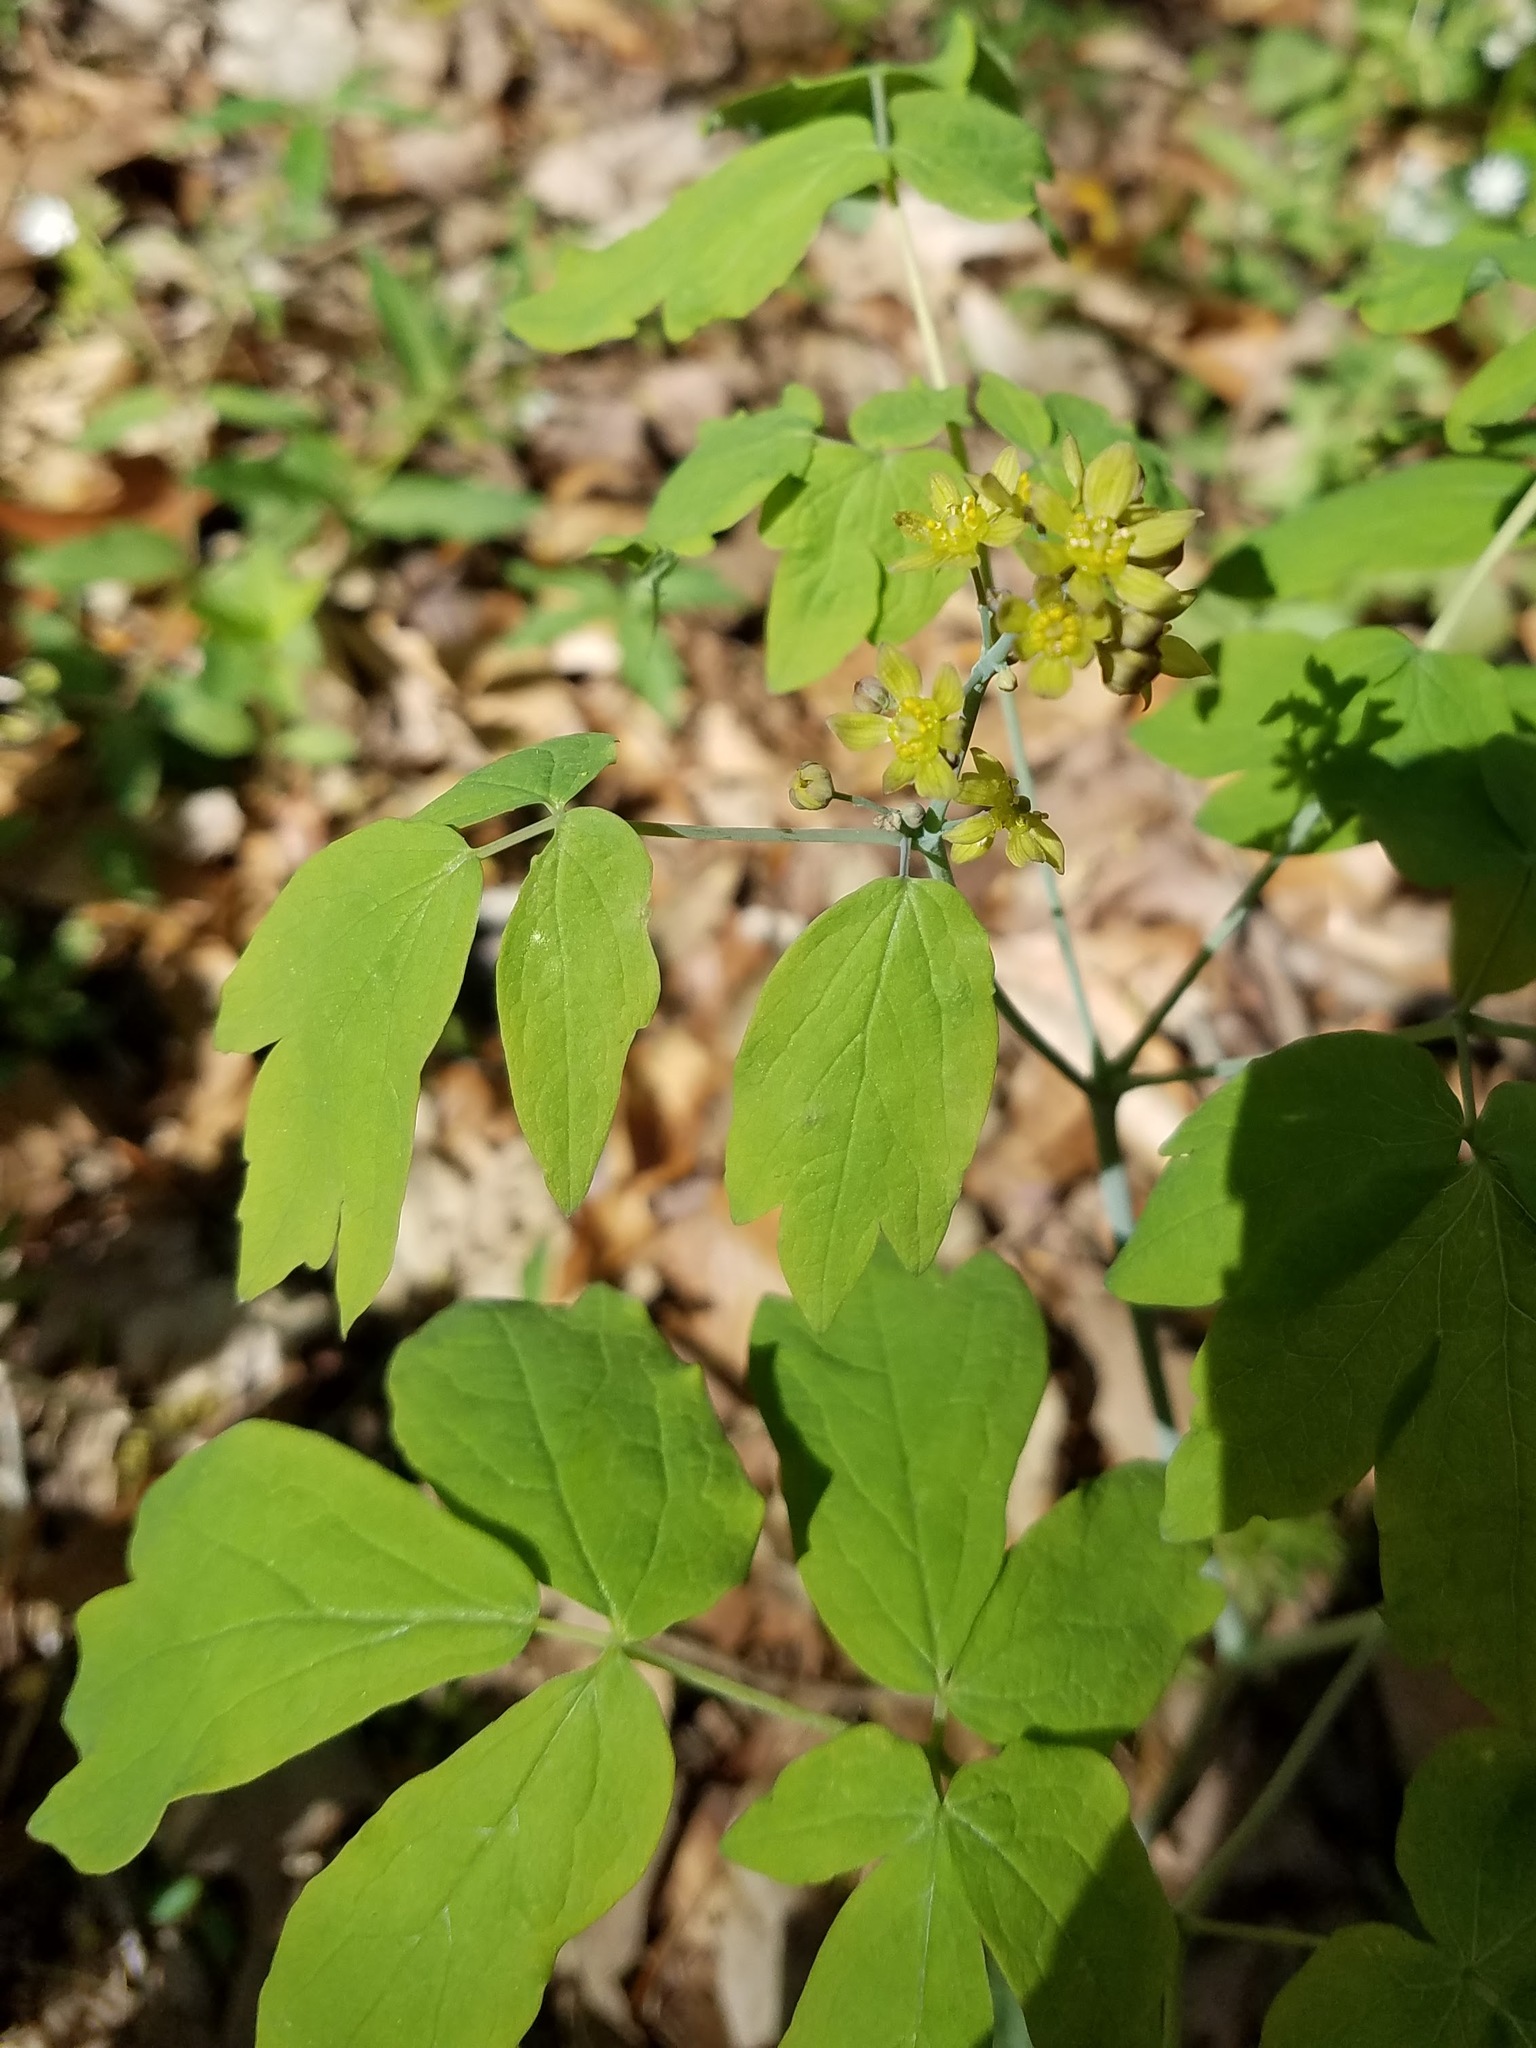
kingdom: Plantae
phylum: Tracheophyta
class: Magnoliopsida
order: Ranunculales
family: Berberidaceae
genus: Caulophyllum
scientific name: Caulophyllum thalictroides
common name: Blue cohosh
